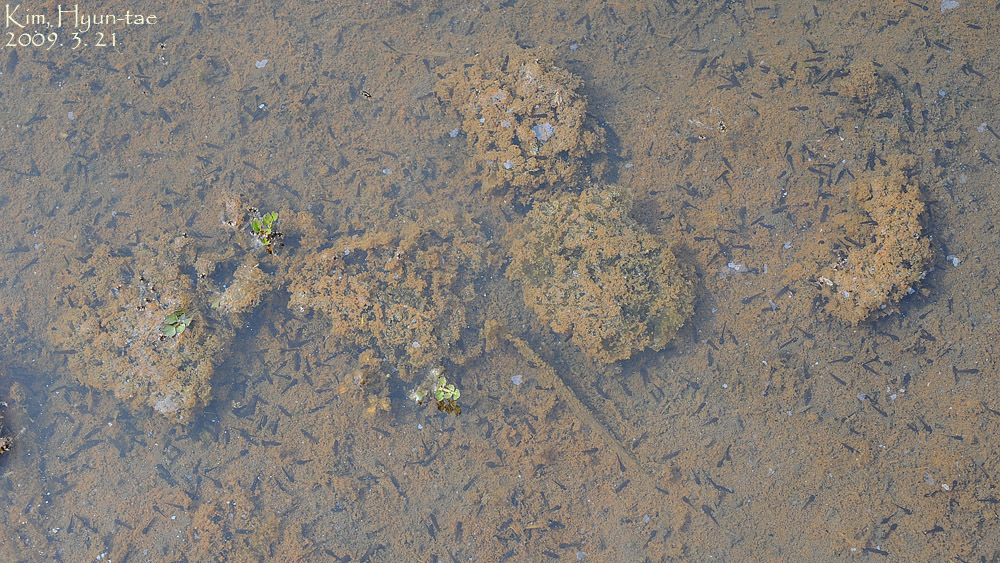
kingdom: Animalia
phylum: Chordata
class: Amphibia
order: Anura
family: Ranidae
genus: Rana
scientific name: Rana coreana
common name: Korean brown frog
